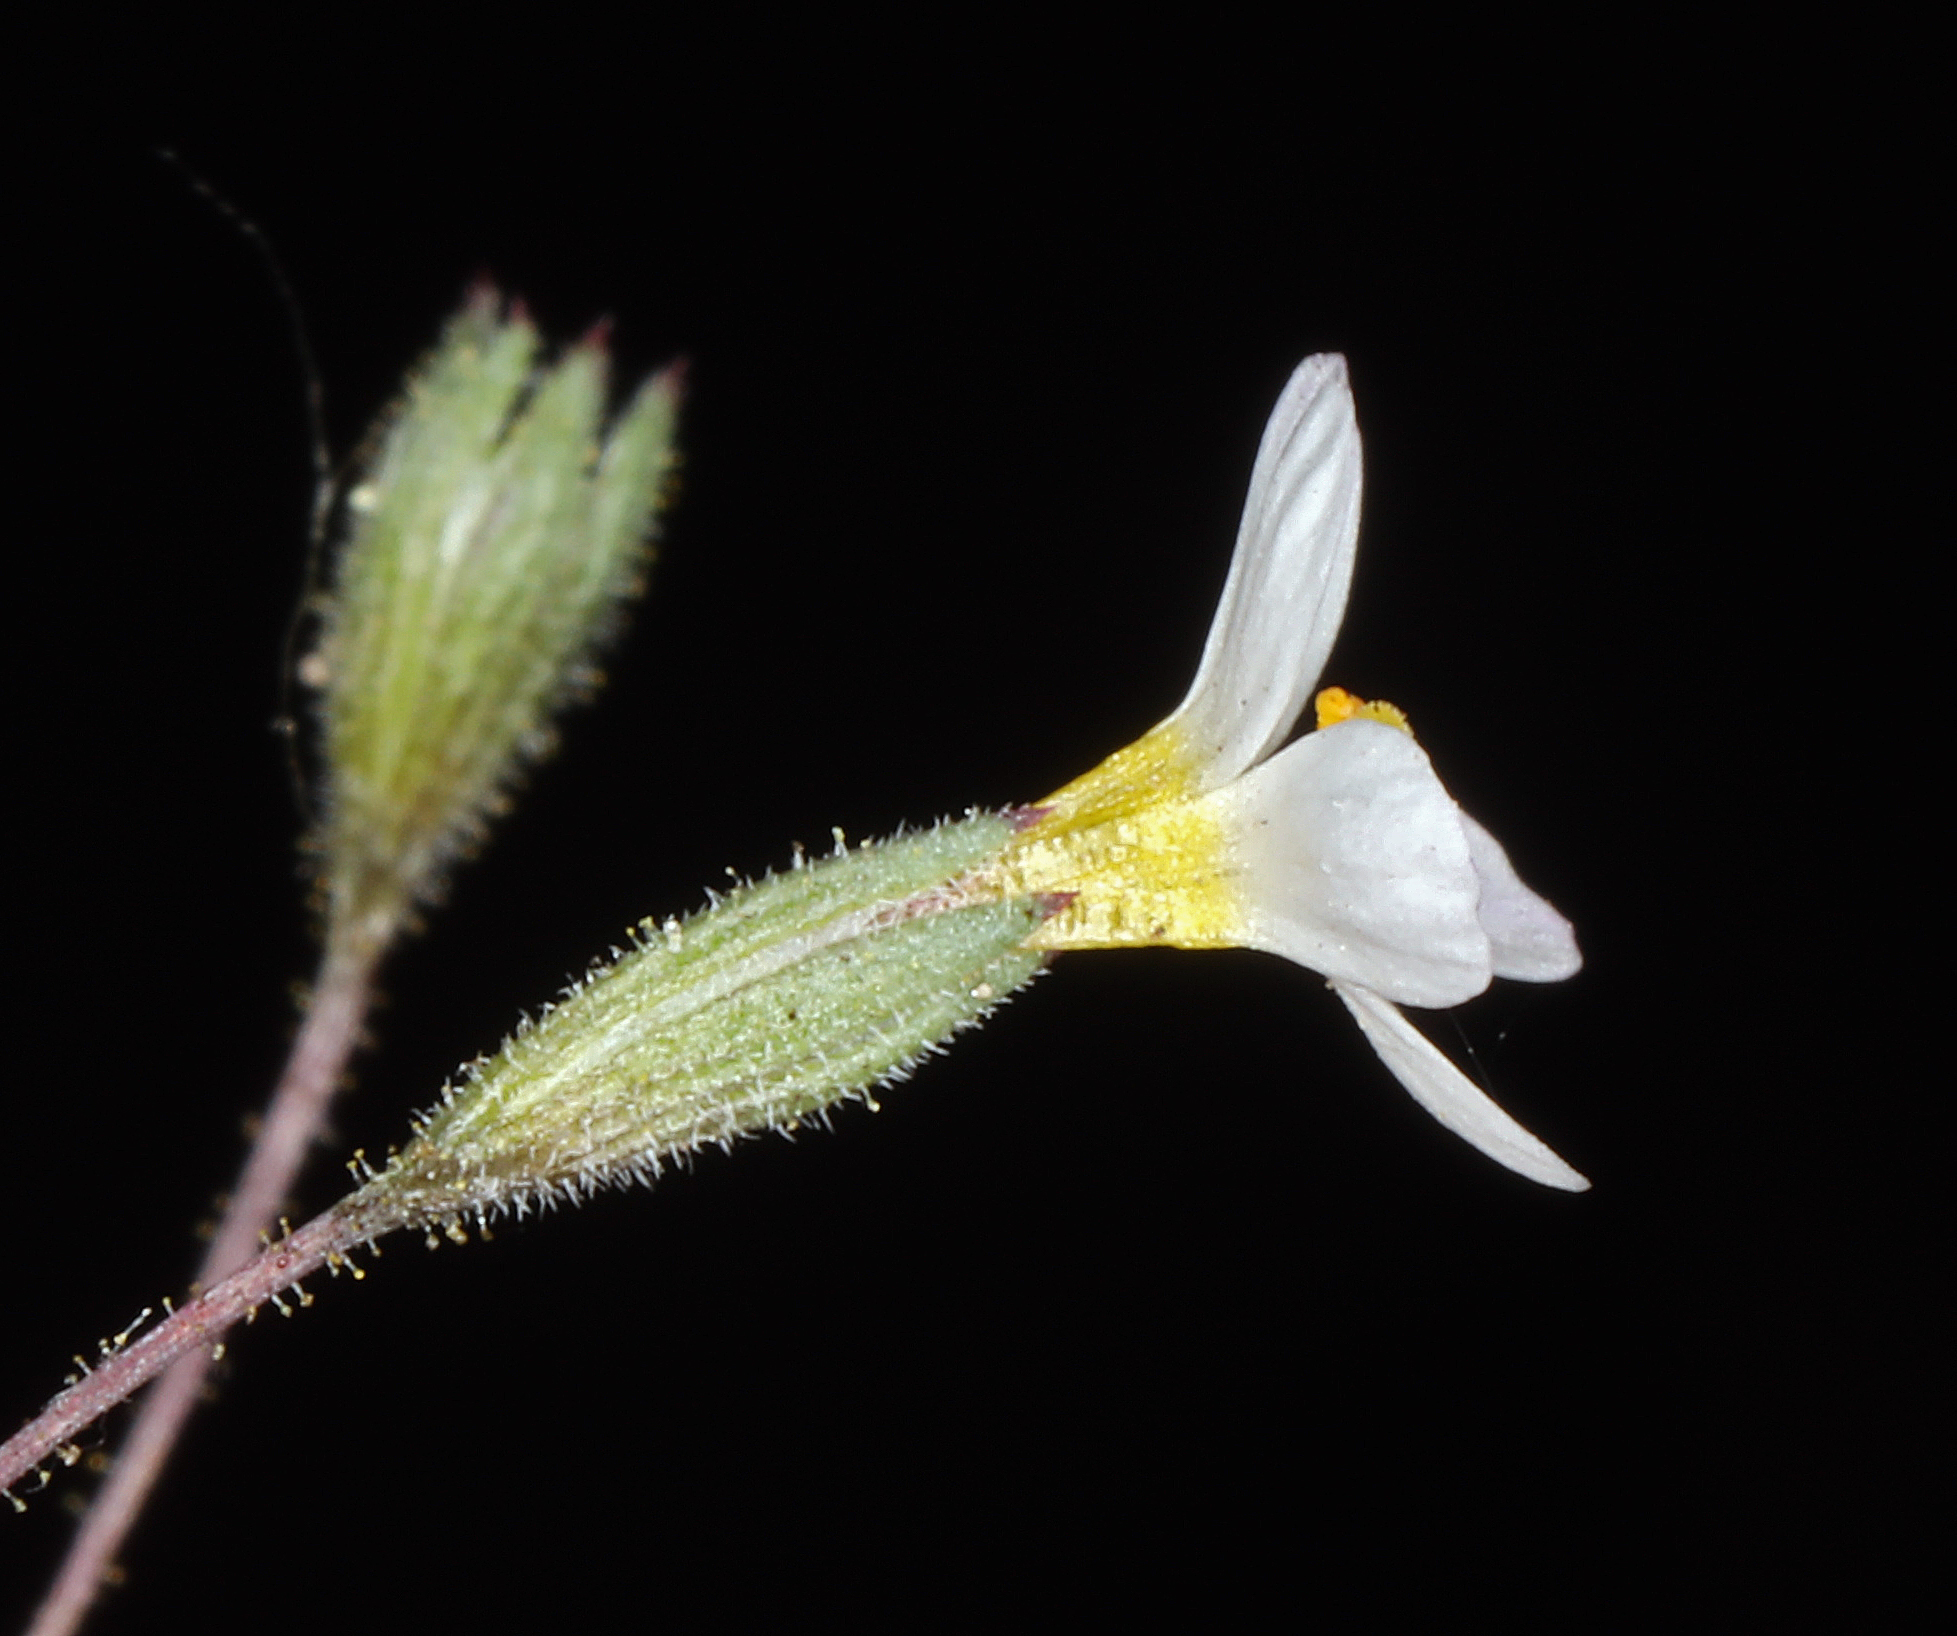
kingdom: Plantae
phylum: Tracheophyta
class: Magnoliopsida
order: Ericales
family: Polemoniaceae
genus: Leptosiphon
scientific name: Leptosiphon bolanderi
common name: Bolander's linanthus
